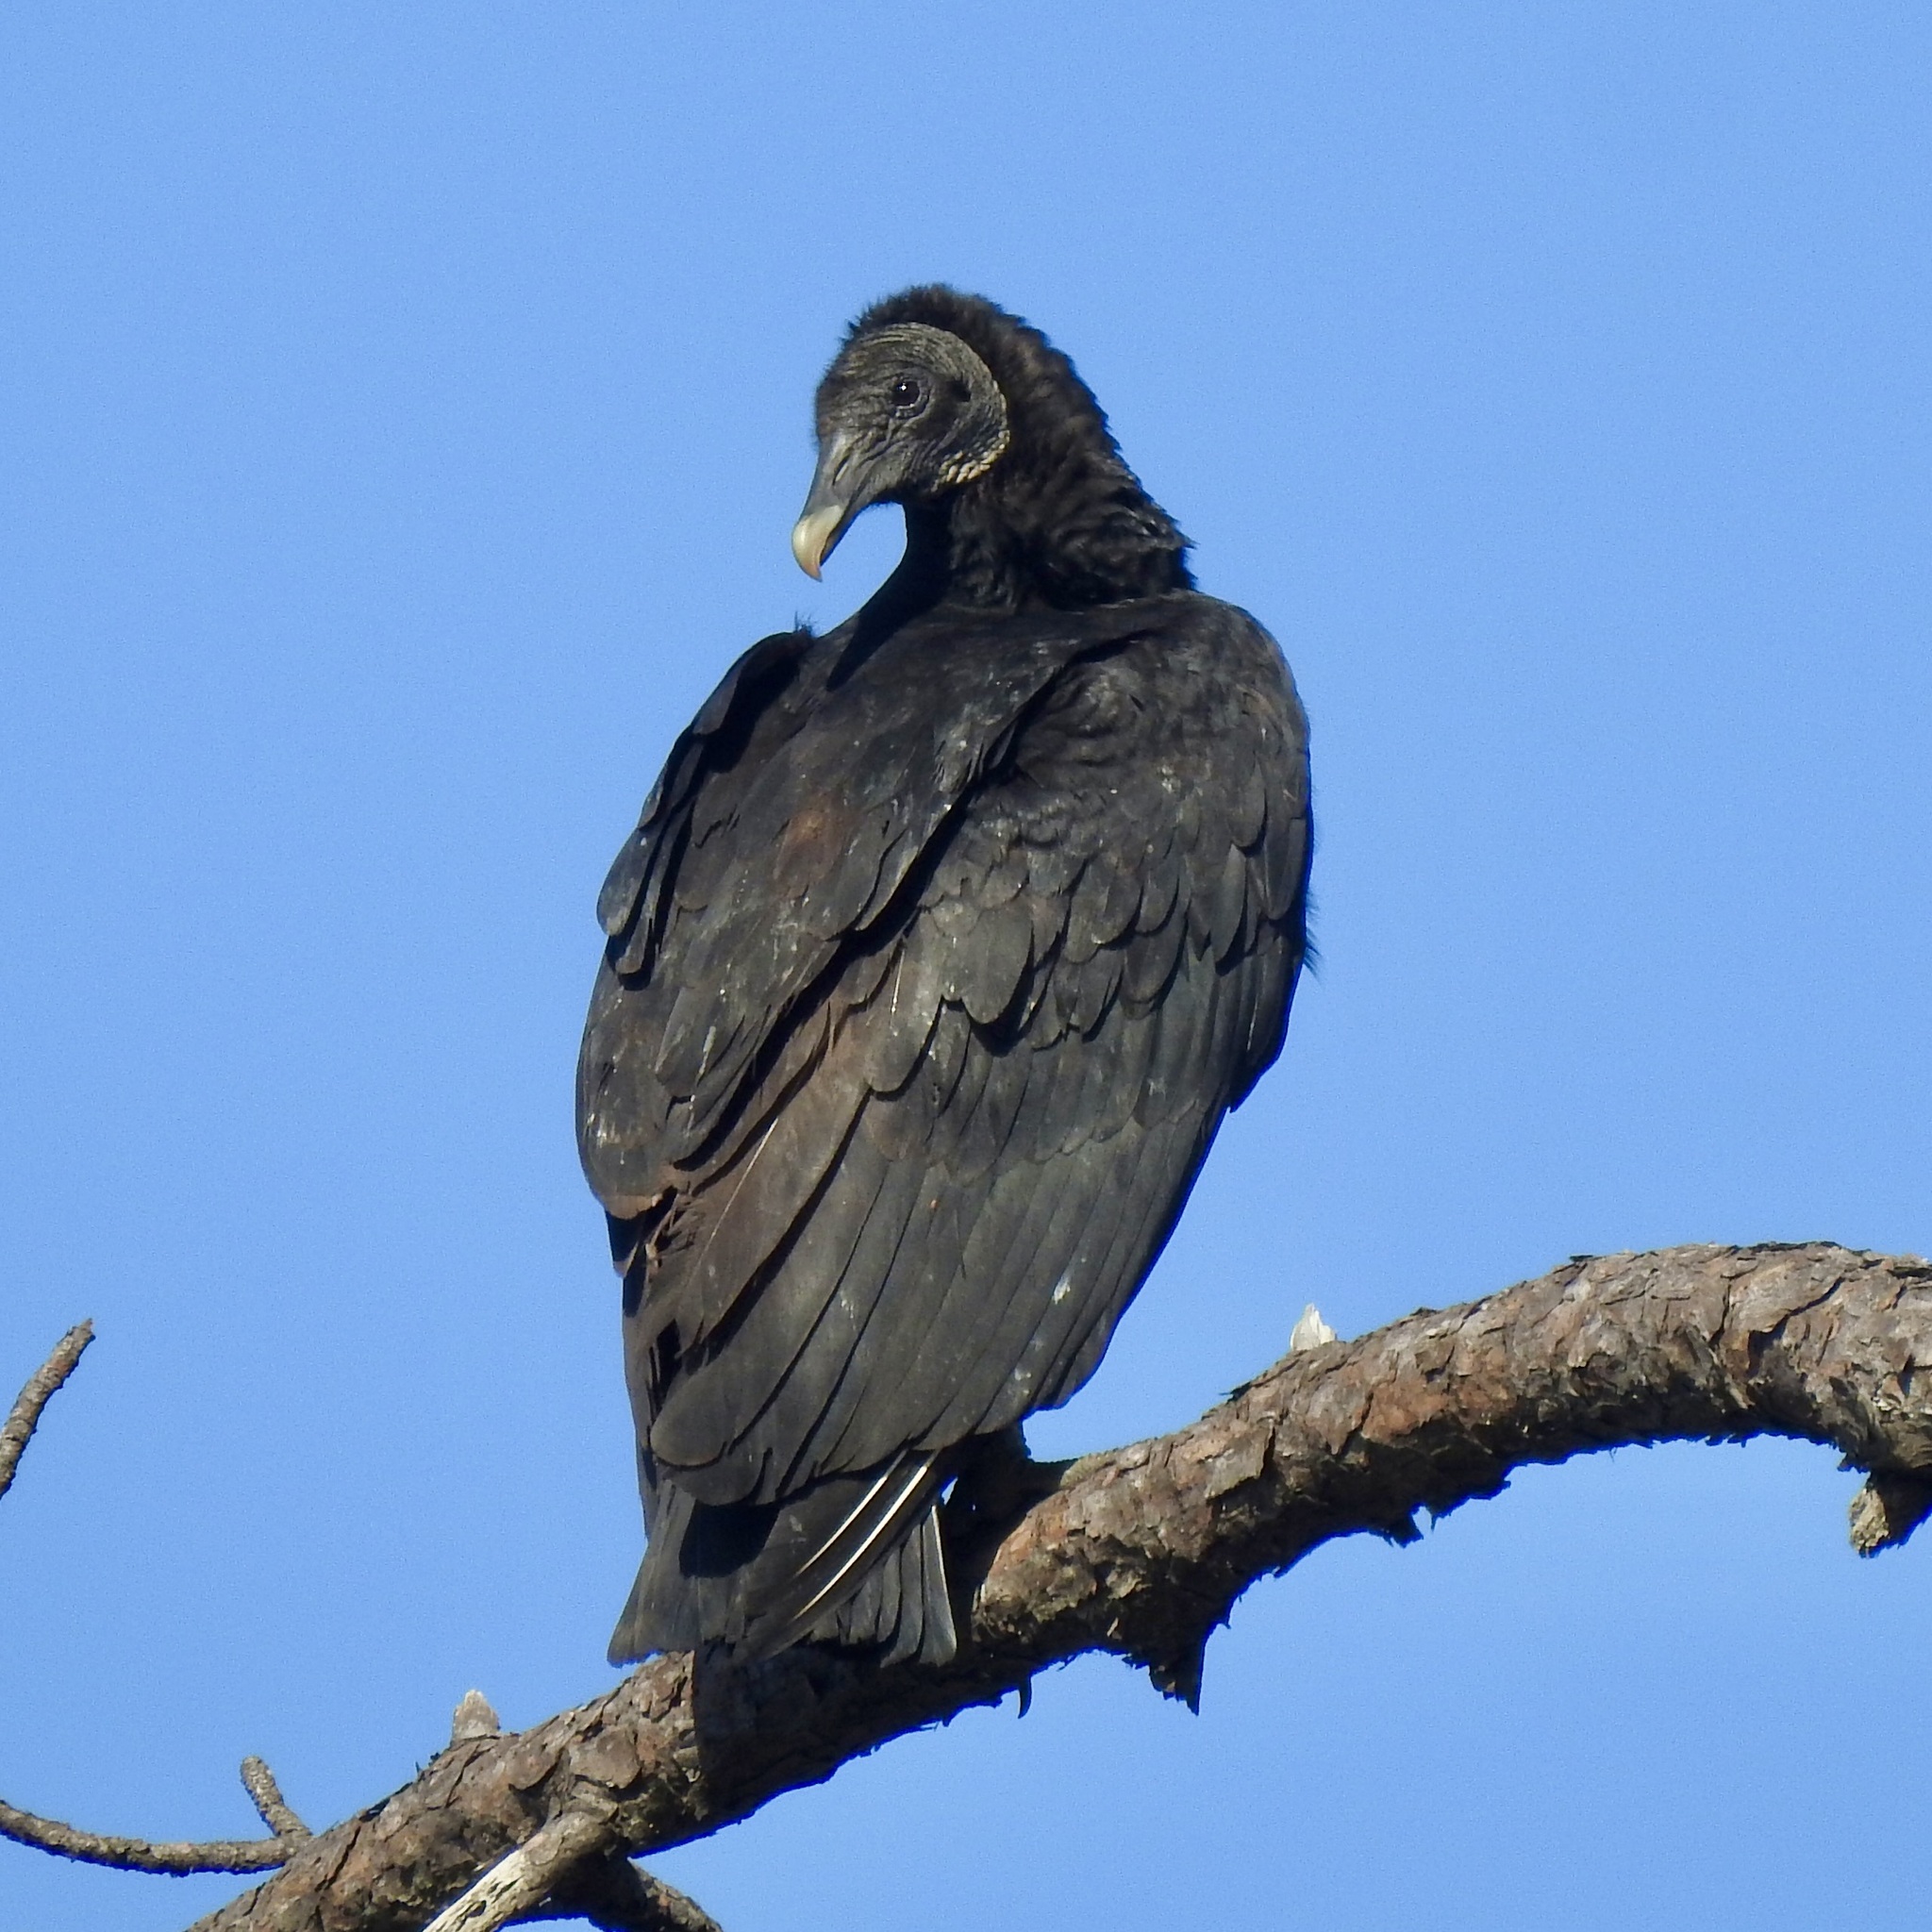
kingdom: Animalia
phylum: Chordata
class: Aves
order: Accipitriformes
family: Cathartidae
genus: Coragyps
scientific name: Coragyps atratus
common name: Black vulture
